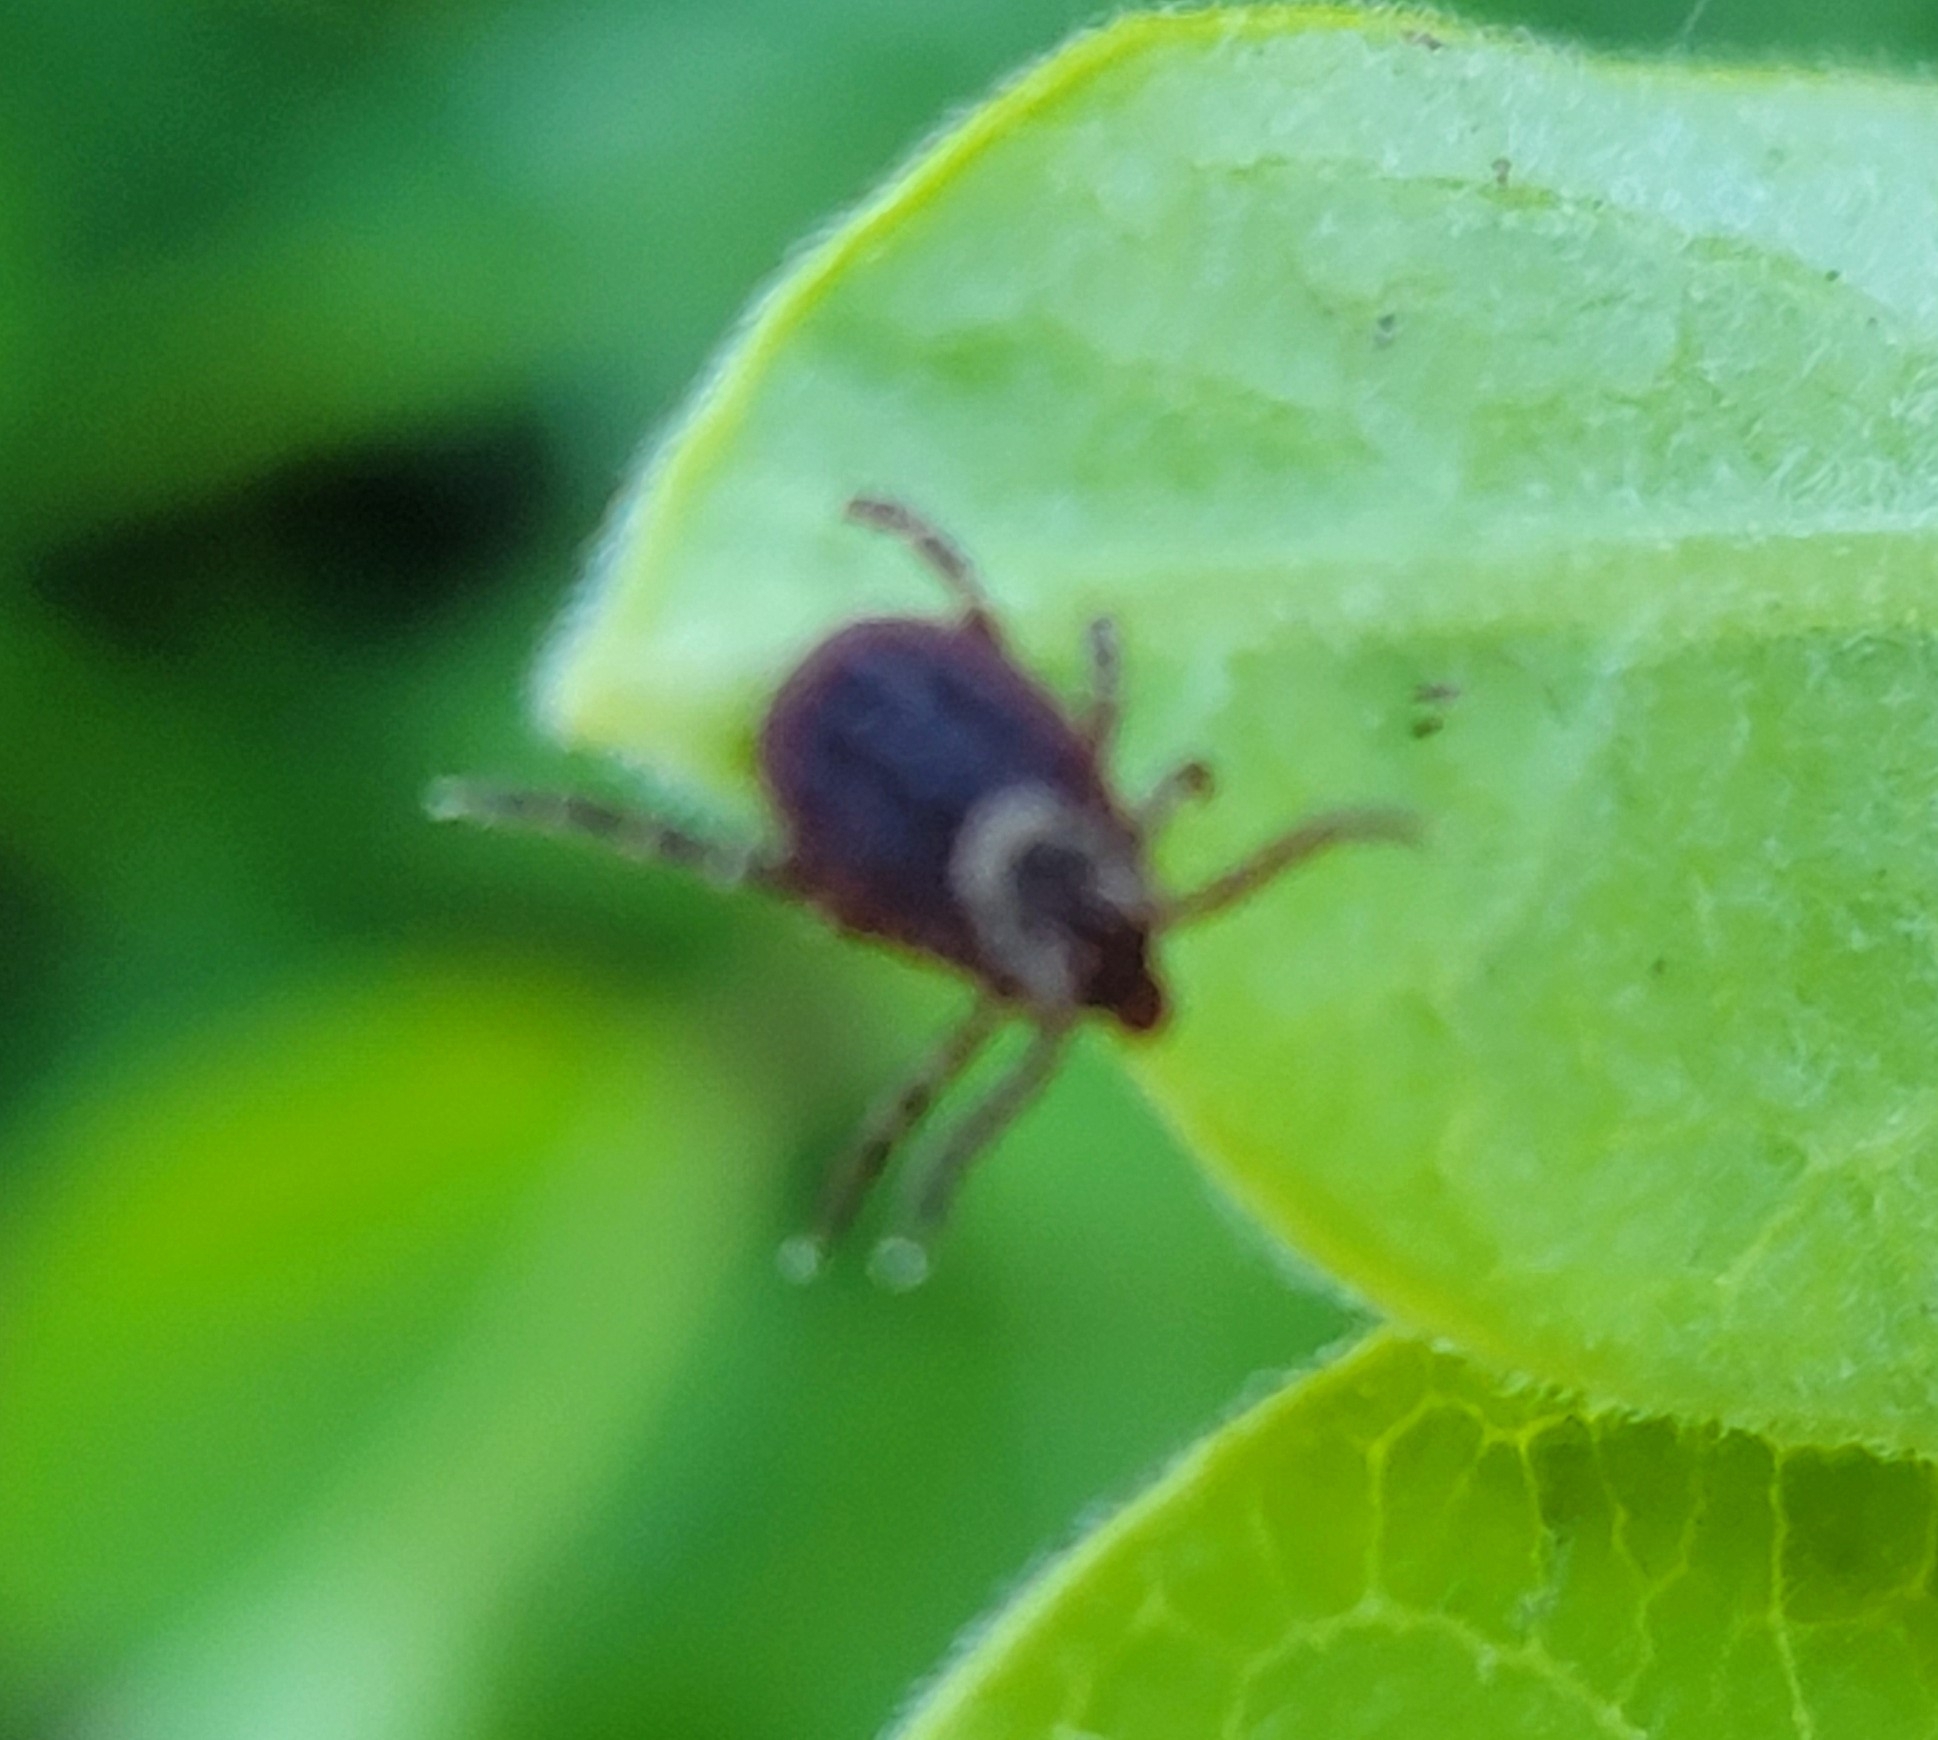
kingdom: Animalia
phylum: Arthropoda
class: Arachnida
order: Ixodida
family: Ixodidae
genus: Dermacentor
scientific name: Dermacentor variabilis
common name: American dog tick
